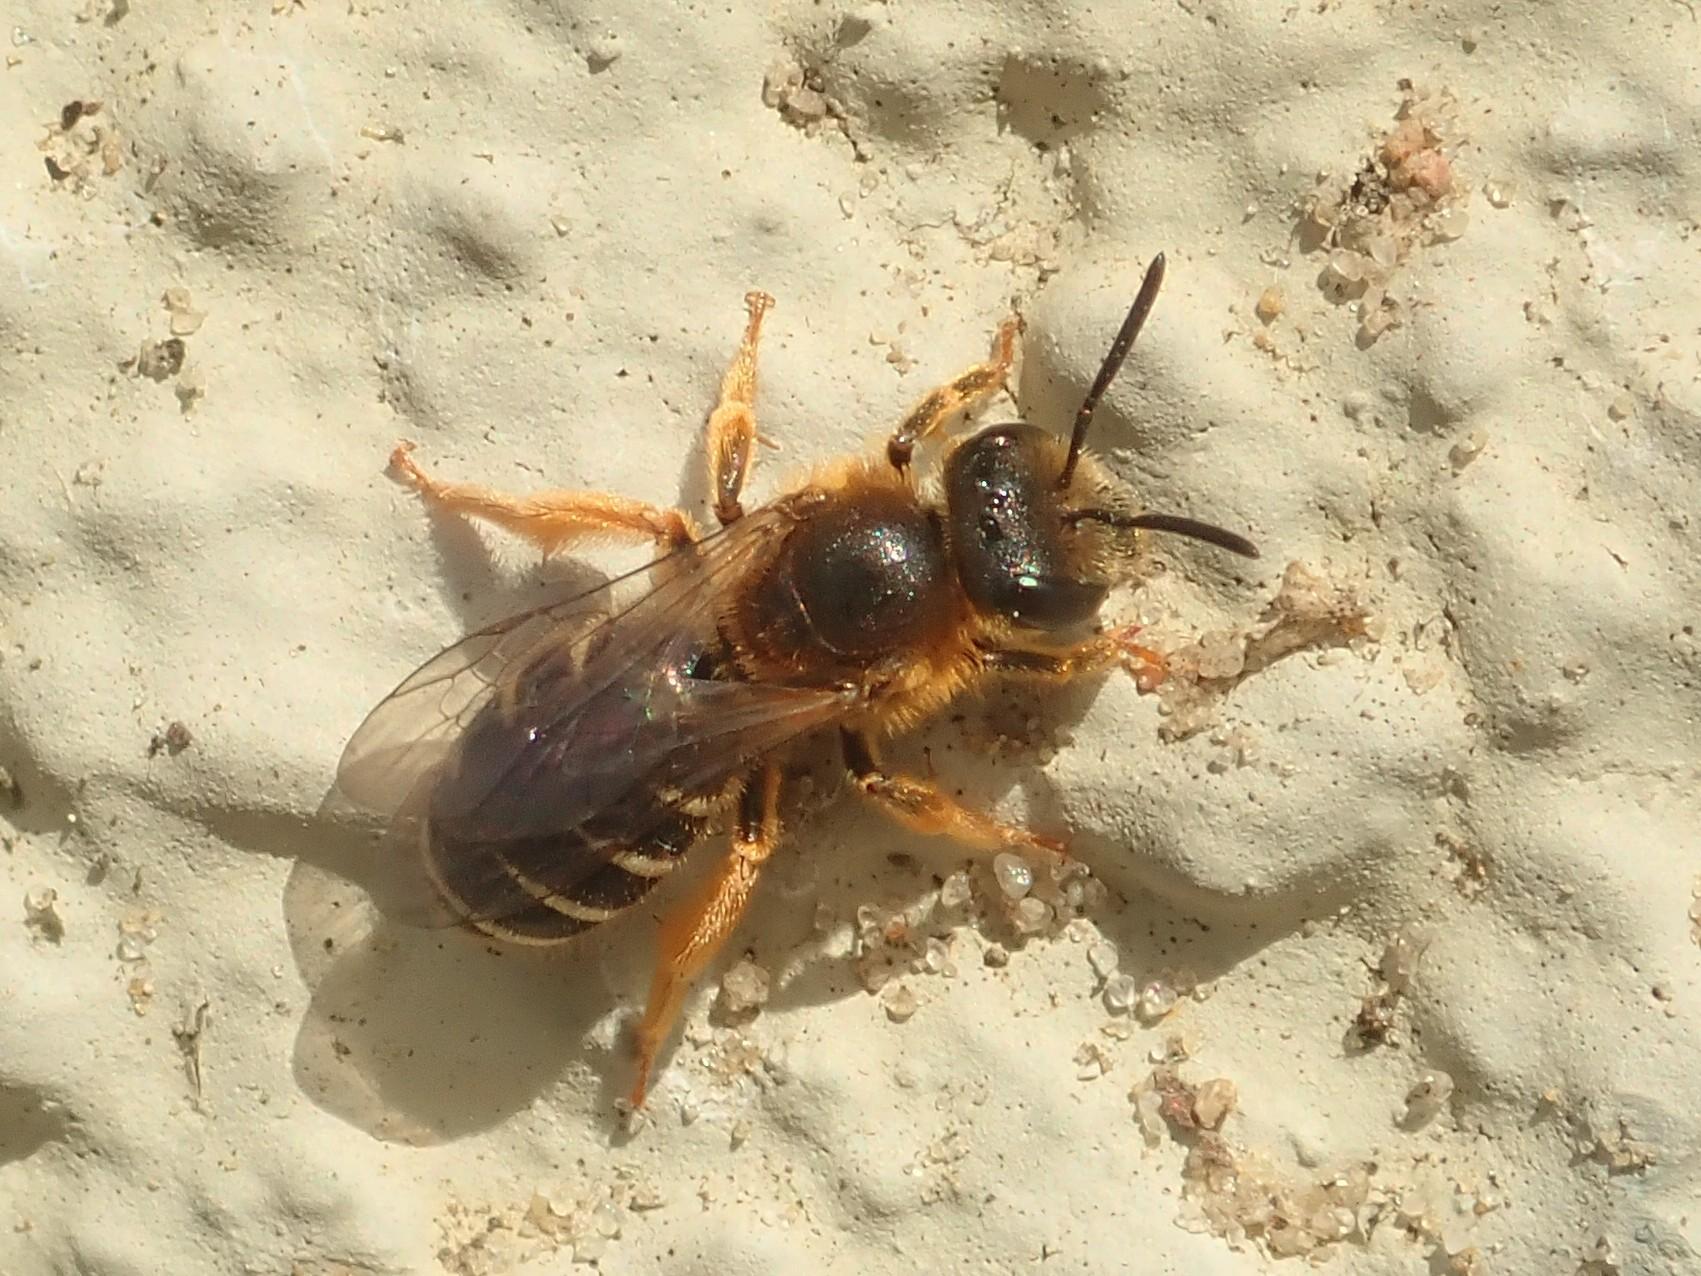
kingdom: Animalia
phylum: Arthropoda
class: Insecta
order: Hymenoptera
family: Halictidae
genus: Halictus
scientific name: Halictus rubicundus
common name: Orange-legged furrow bee
